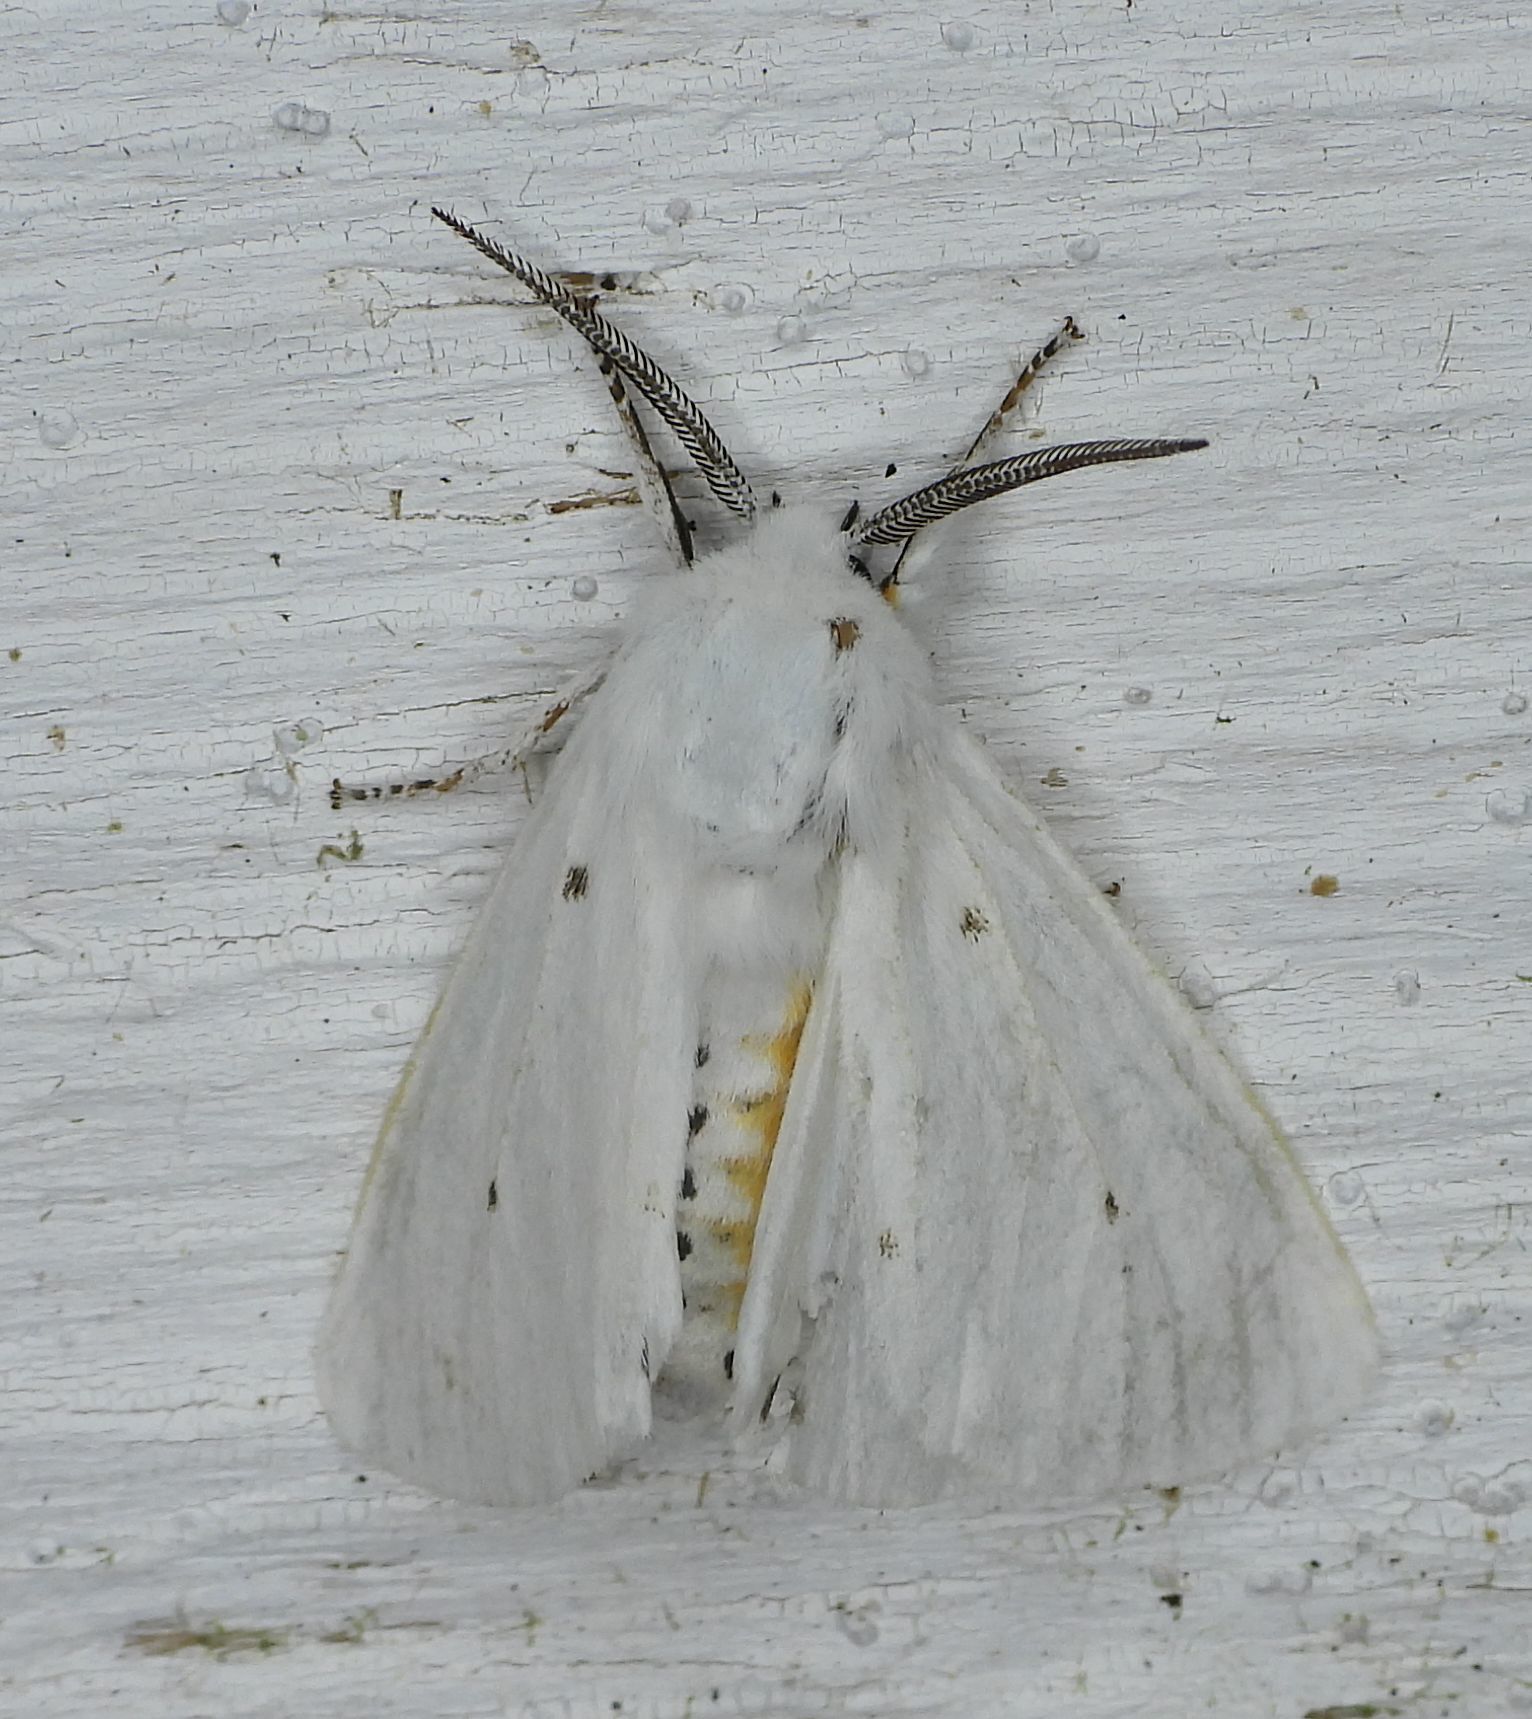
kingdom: Animalia
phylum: Arthropoda
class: Insecta
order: Lepidoptera
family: Erebidae
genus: Spilosoma
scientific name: Spilosoma virginica
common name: Virginia tiger moth
